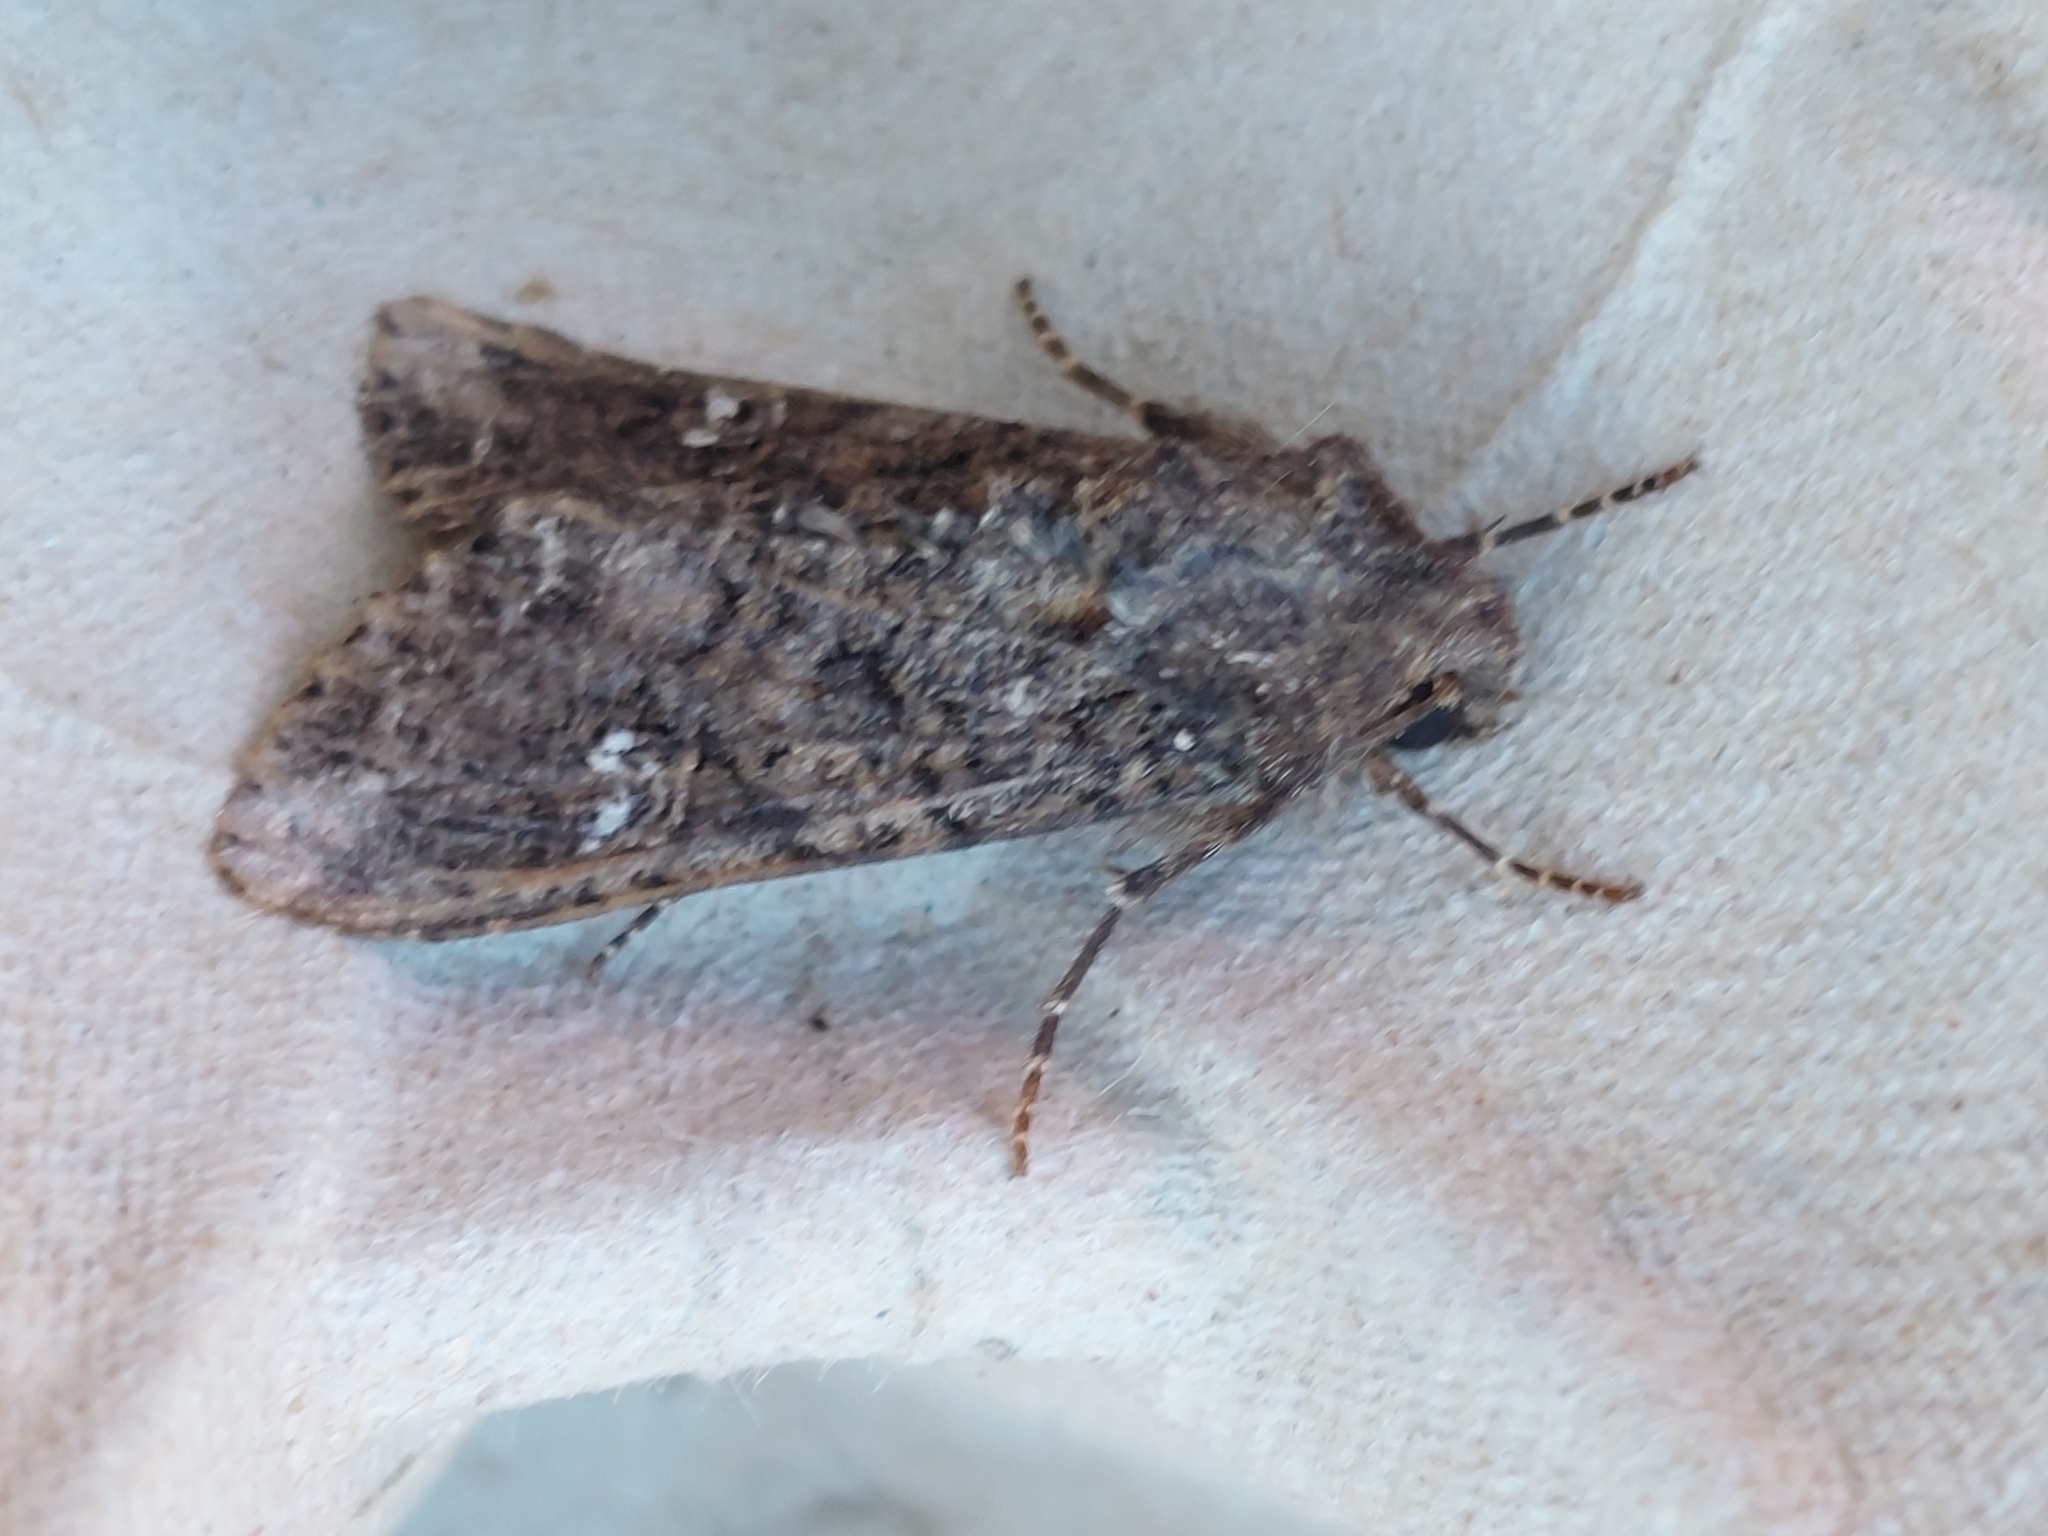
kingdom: Animalia
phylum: Arthropoda
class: Insecta
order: Lepidoptera
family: Noctuidae
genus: Mamestra
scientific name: Mamestra brassicae
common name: Cabbage moth
